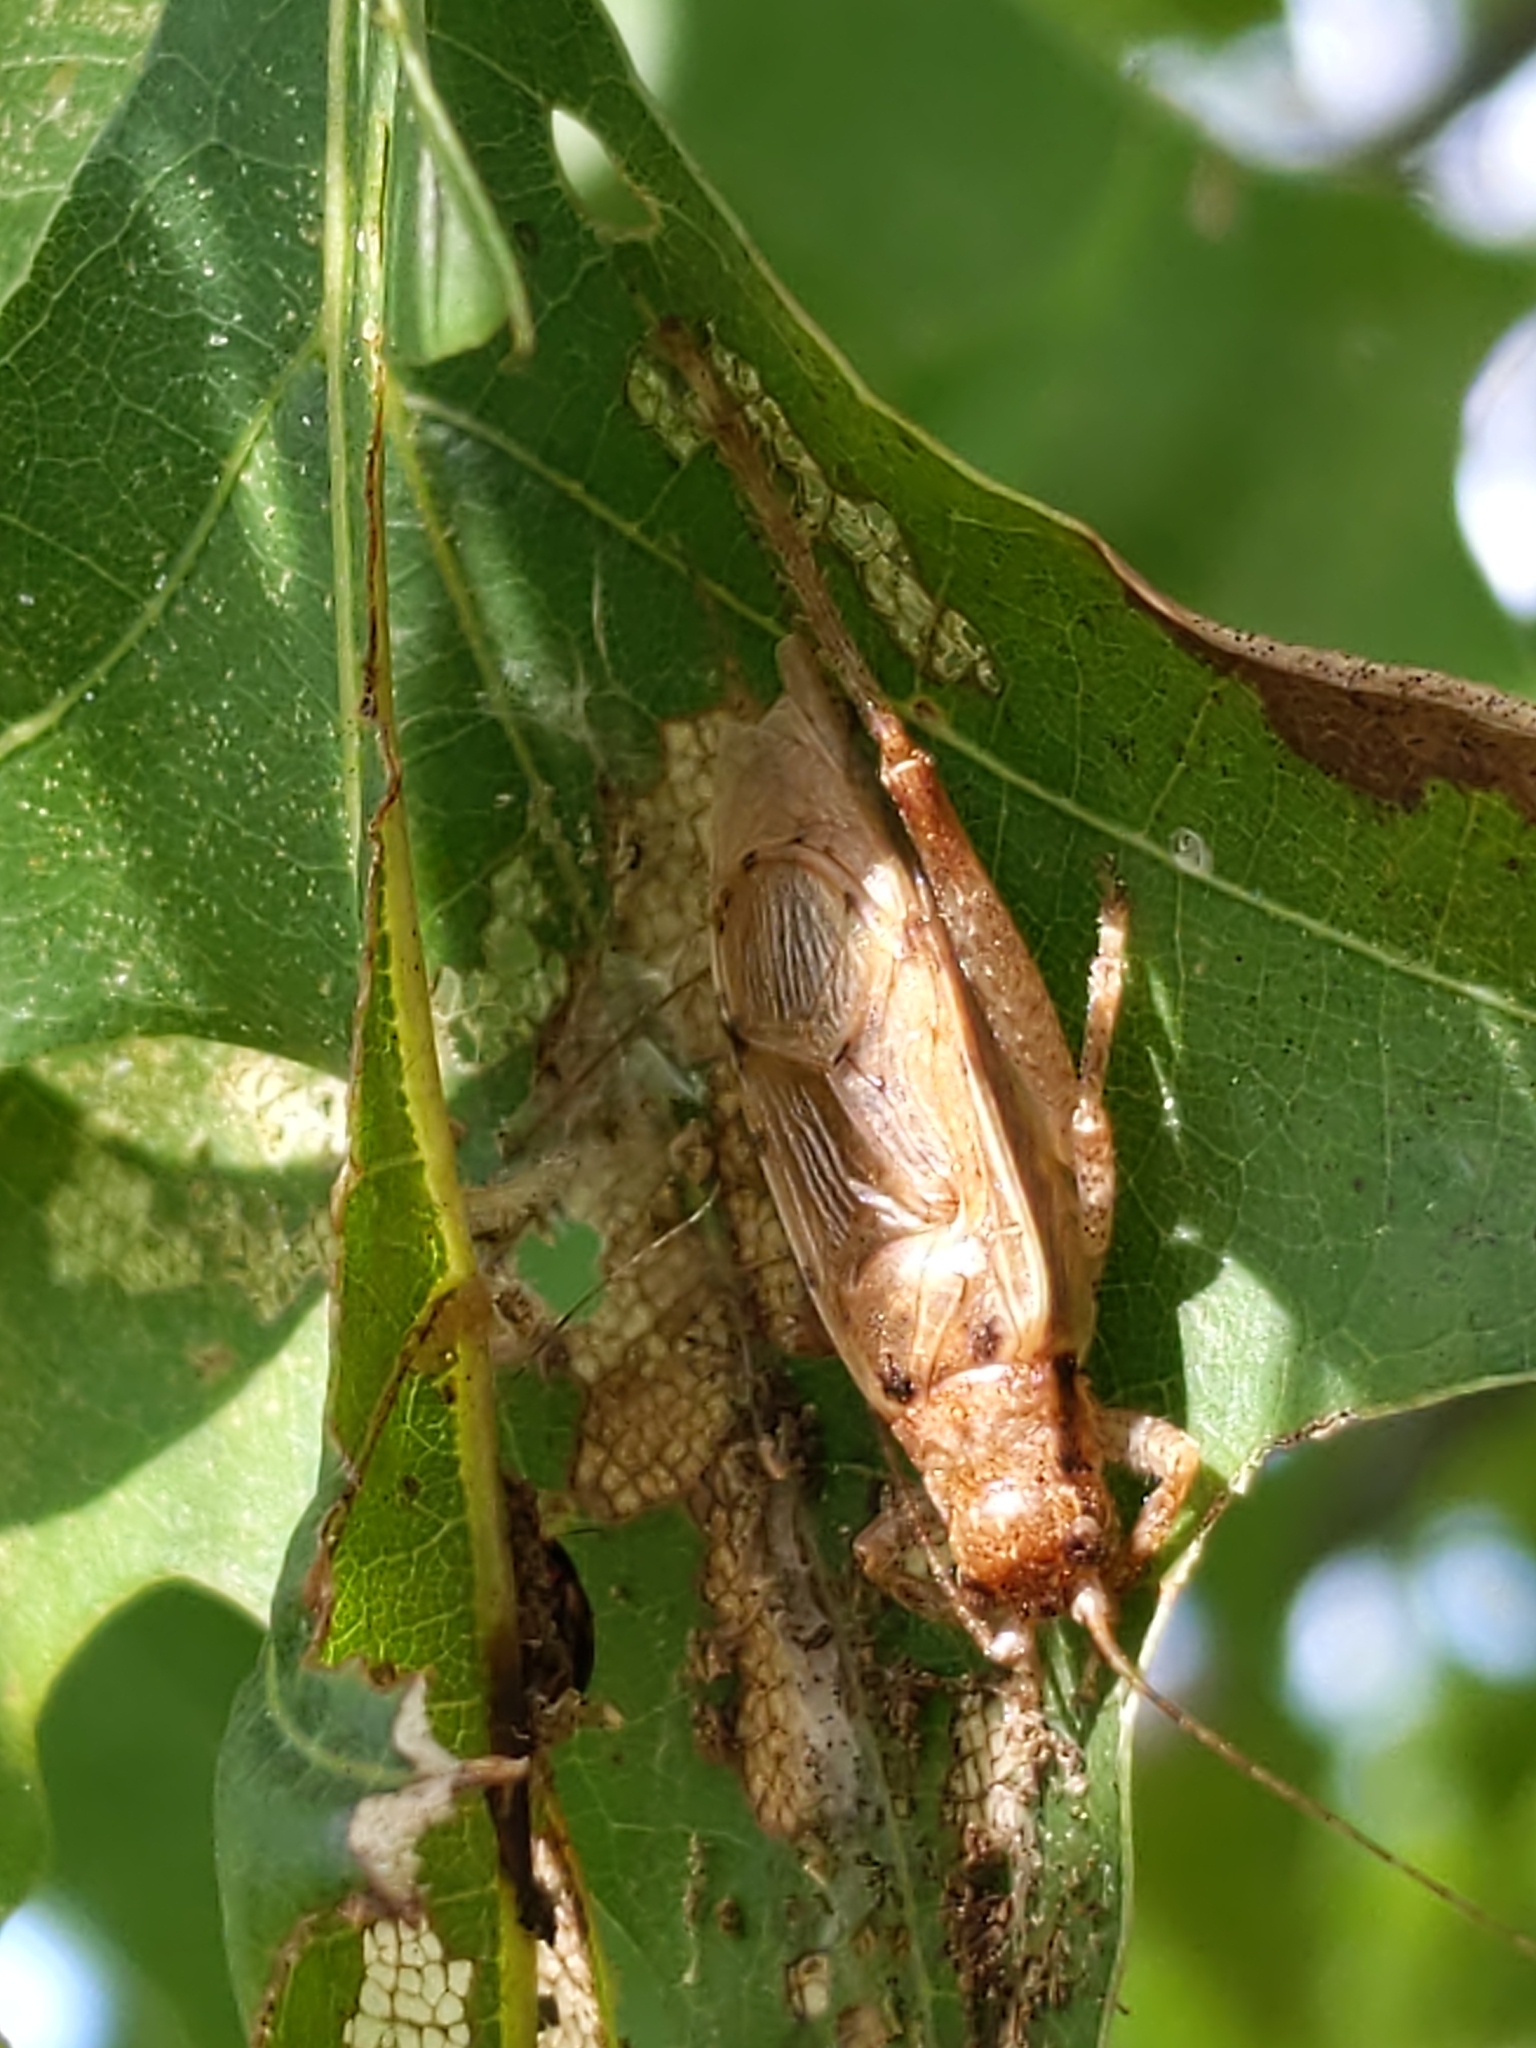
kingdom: Animalia
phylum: Arthropoda
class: Insecta
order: Orthoptera
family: Gryllidae
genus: Hapithus
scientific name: Hapithus saltator
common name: Jumping bush cricket
